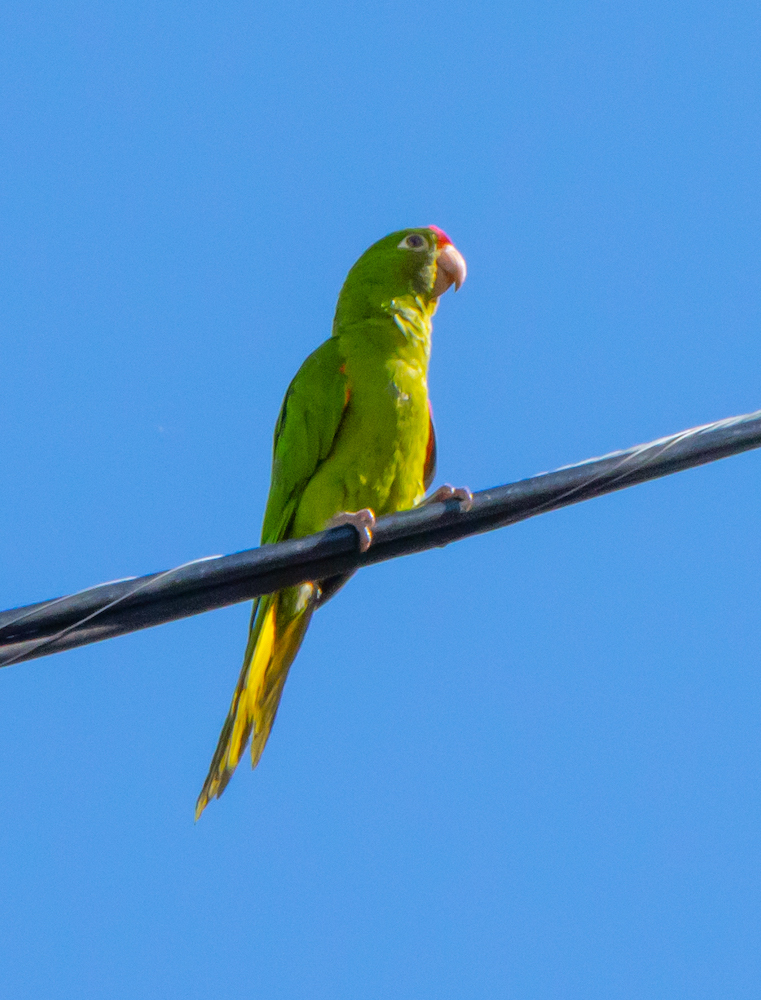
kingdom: Animalia
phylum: Chordata
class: Aves
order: Psittaciformes
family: Psittacidae
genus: Aratinga
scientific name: Aratinga finschi
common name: Crimson-fronted parakeet
